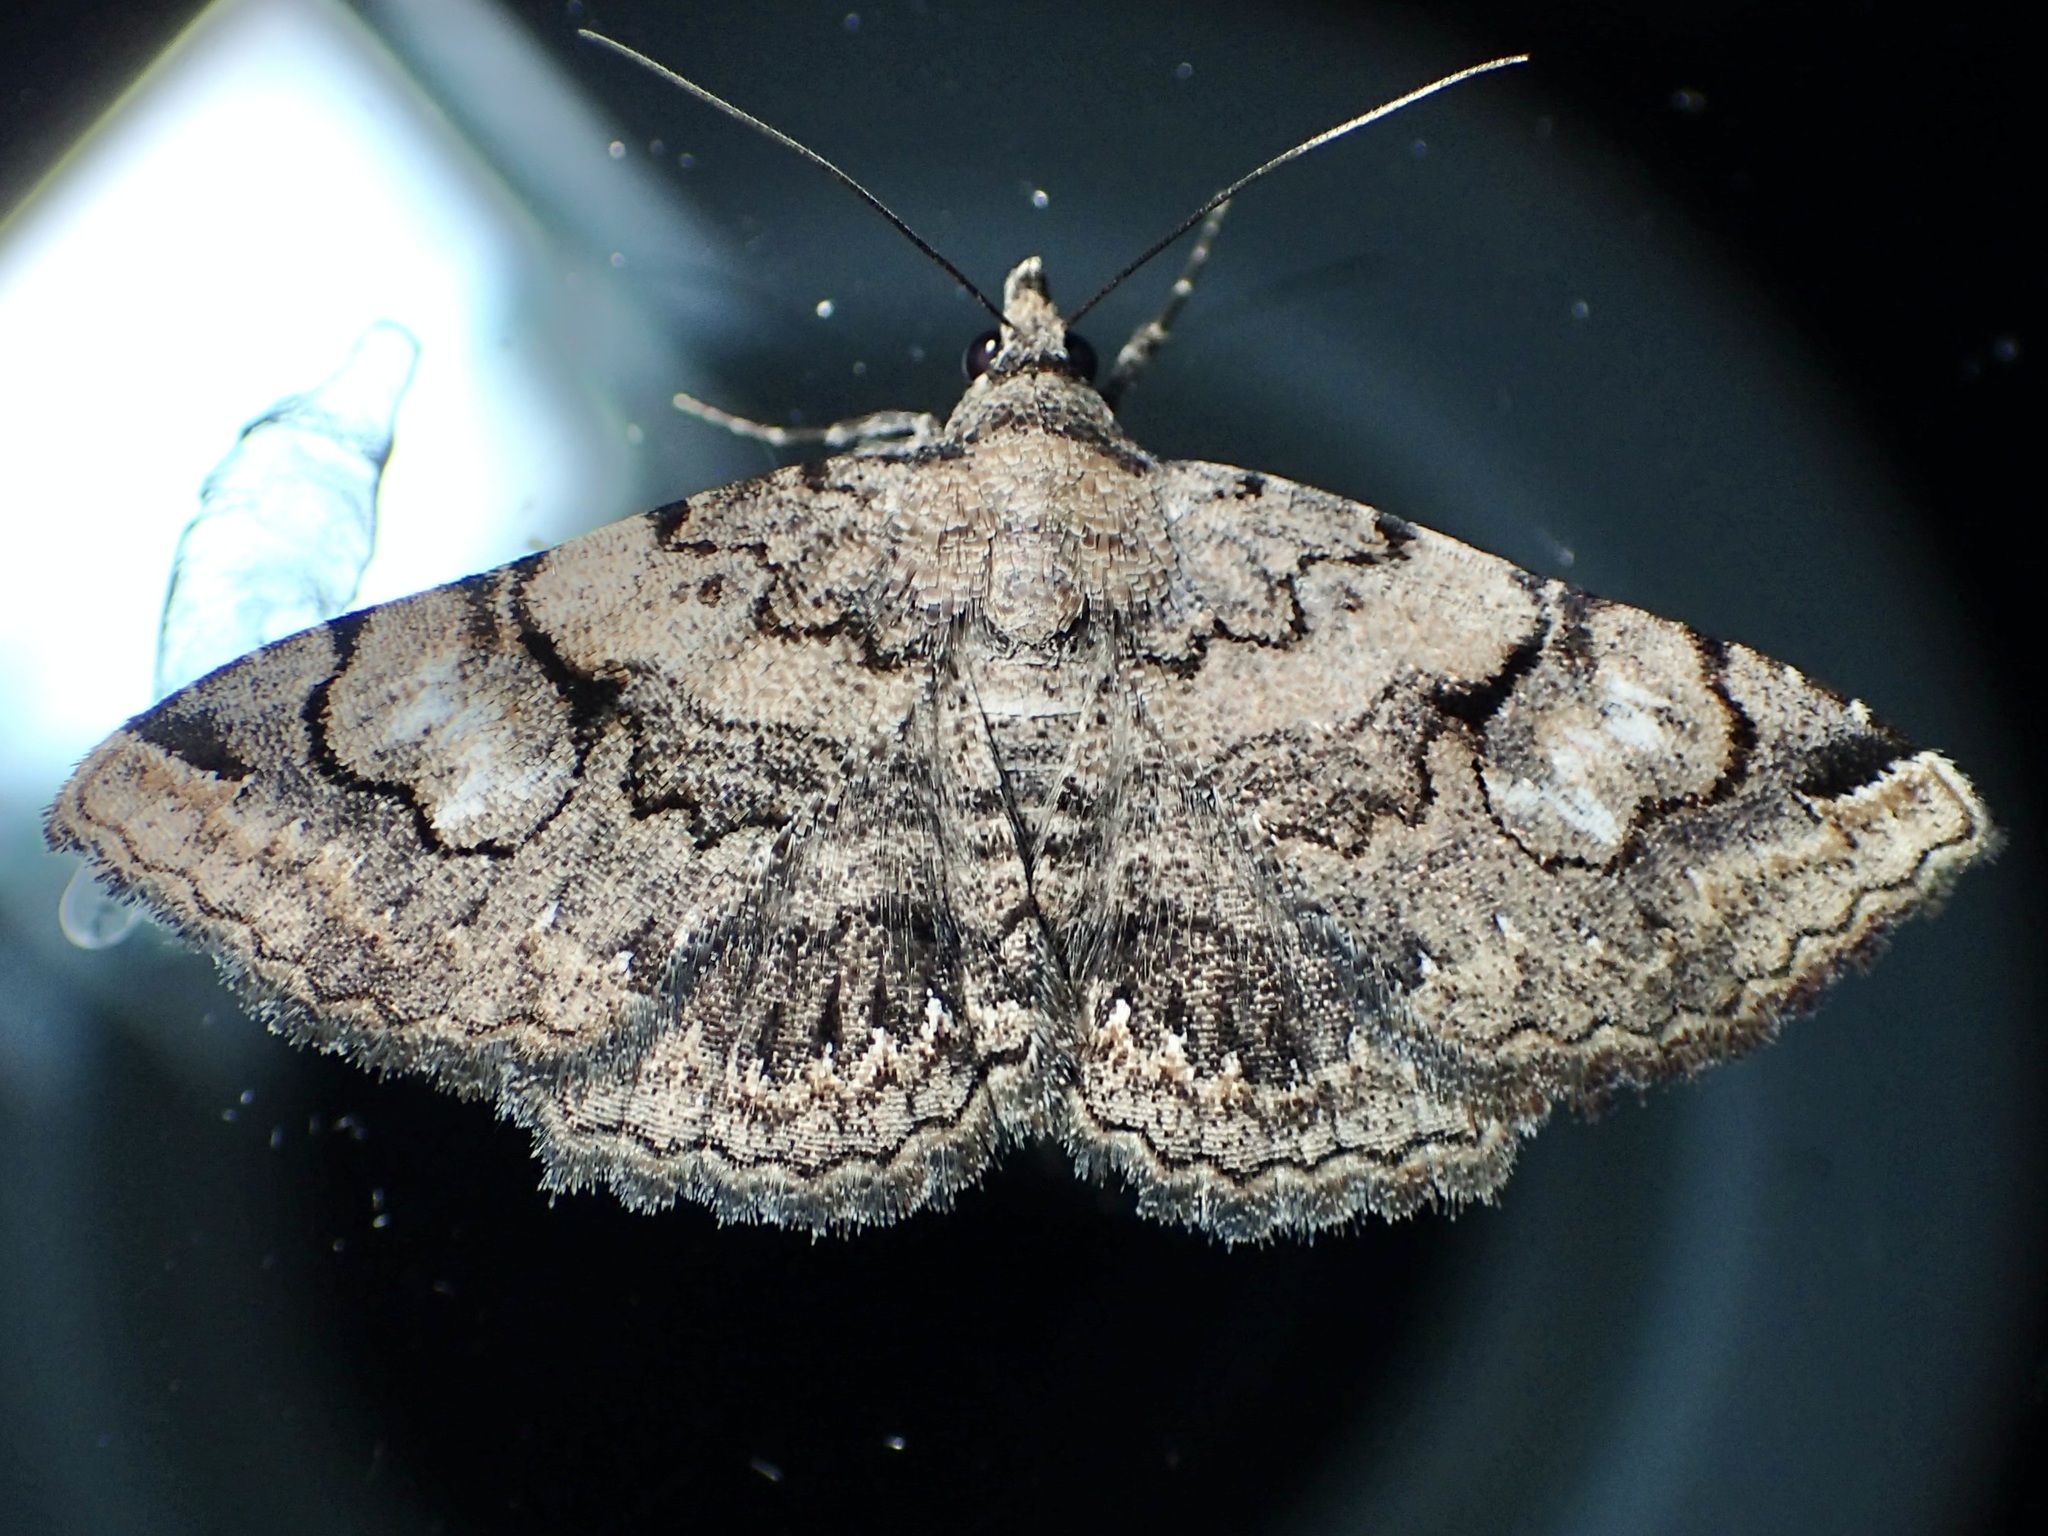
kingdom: Animalia
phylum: Arthropoda
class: Insecta
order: Lepidoptera
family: Erebidae
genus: Toxonprucha
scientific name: Toxonprucha repentis
